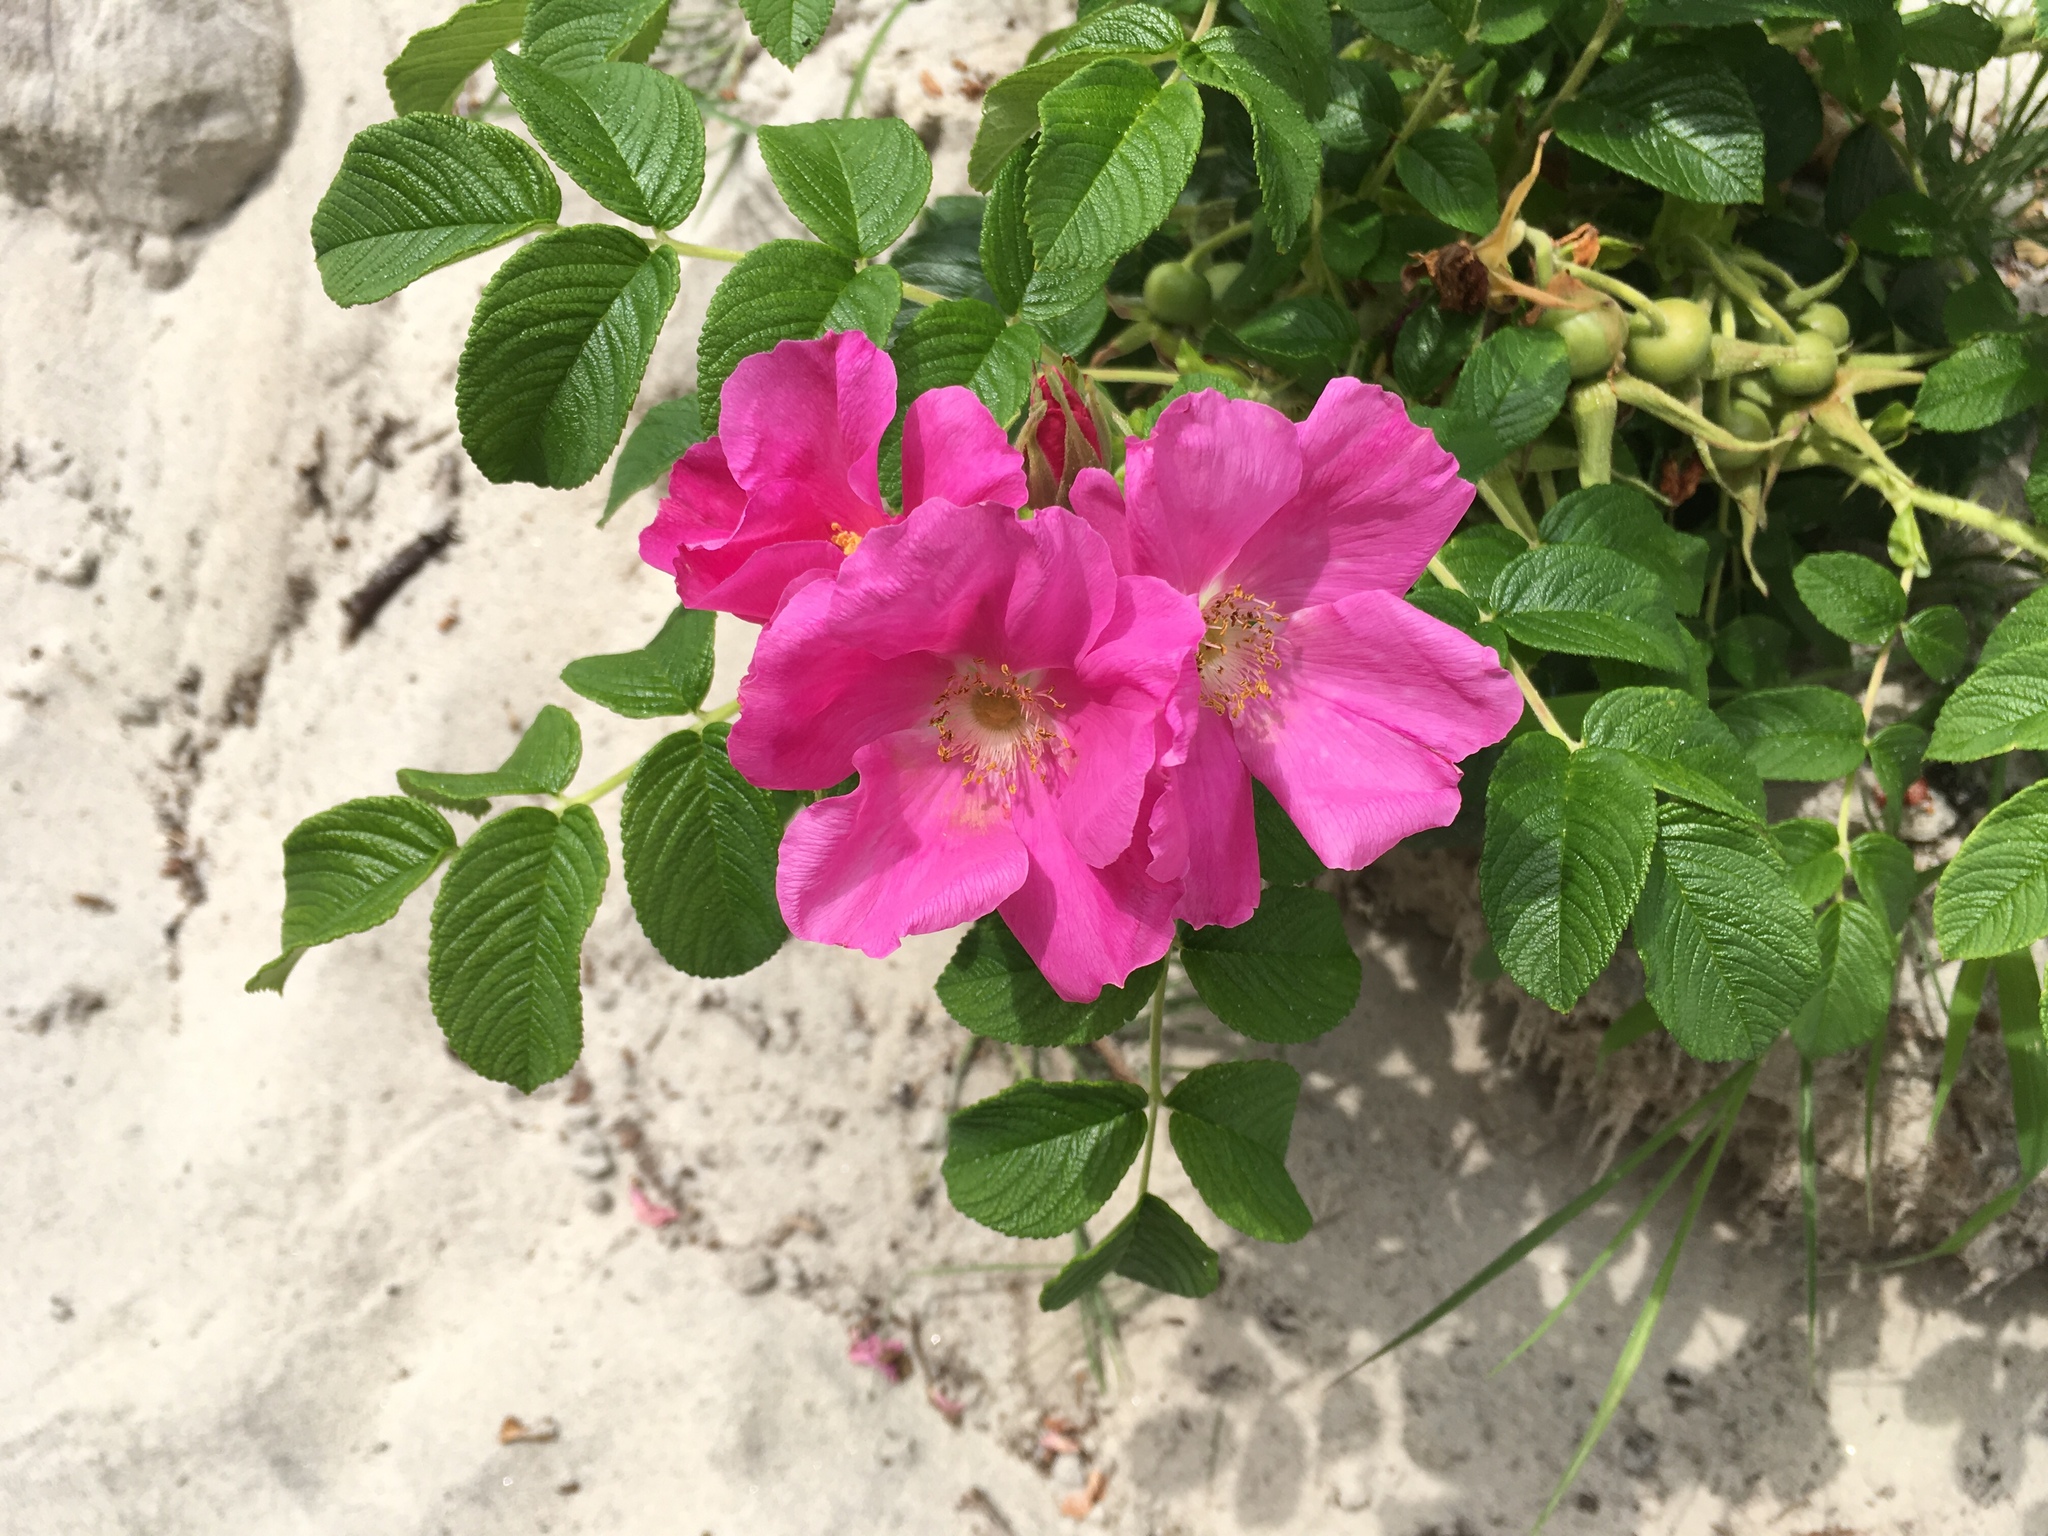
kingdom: Plantae
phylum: Tracheophyta
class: Magnoliopsida
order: Rosales
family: Rosaceae
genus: Rosa
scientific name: Rosa rugosa
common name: Japanese rose
